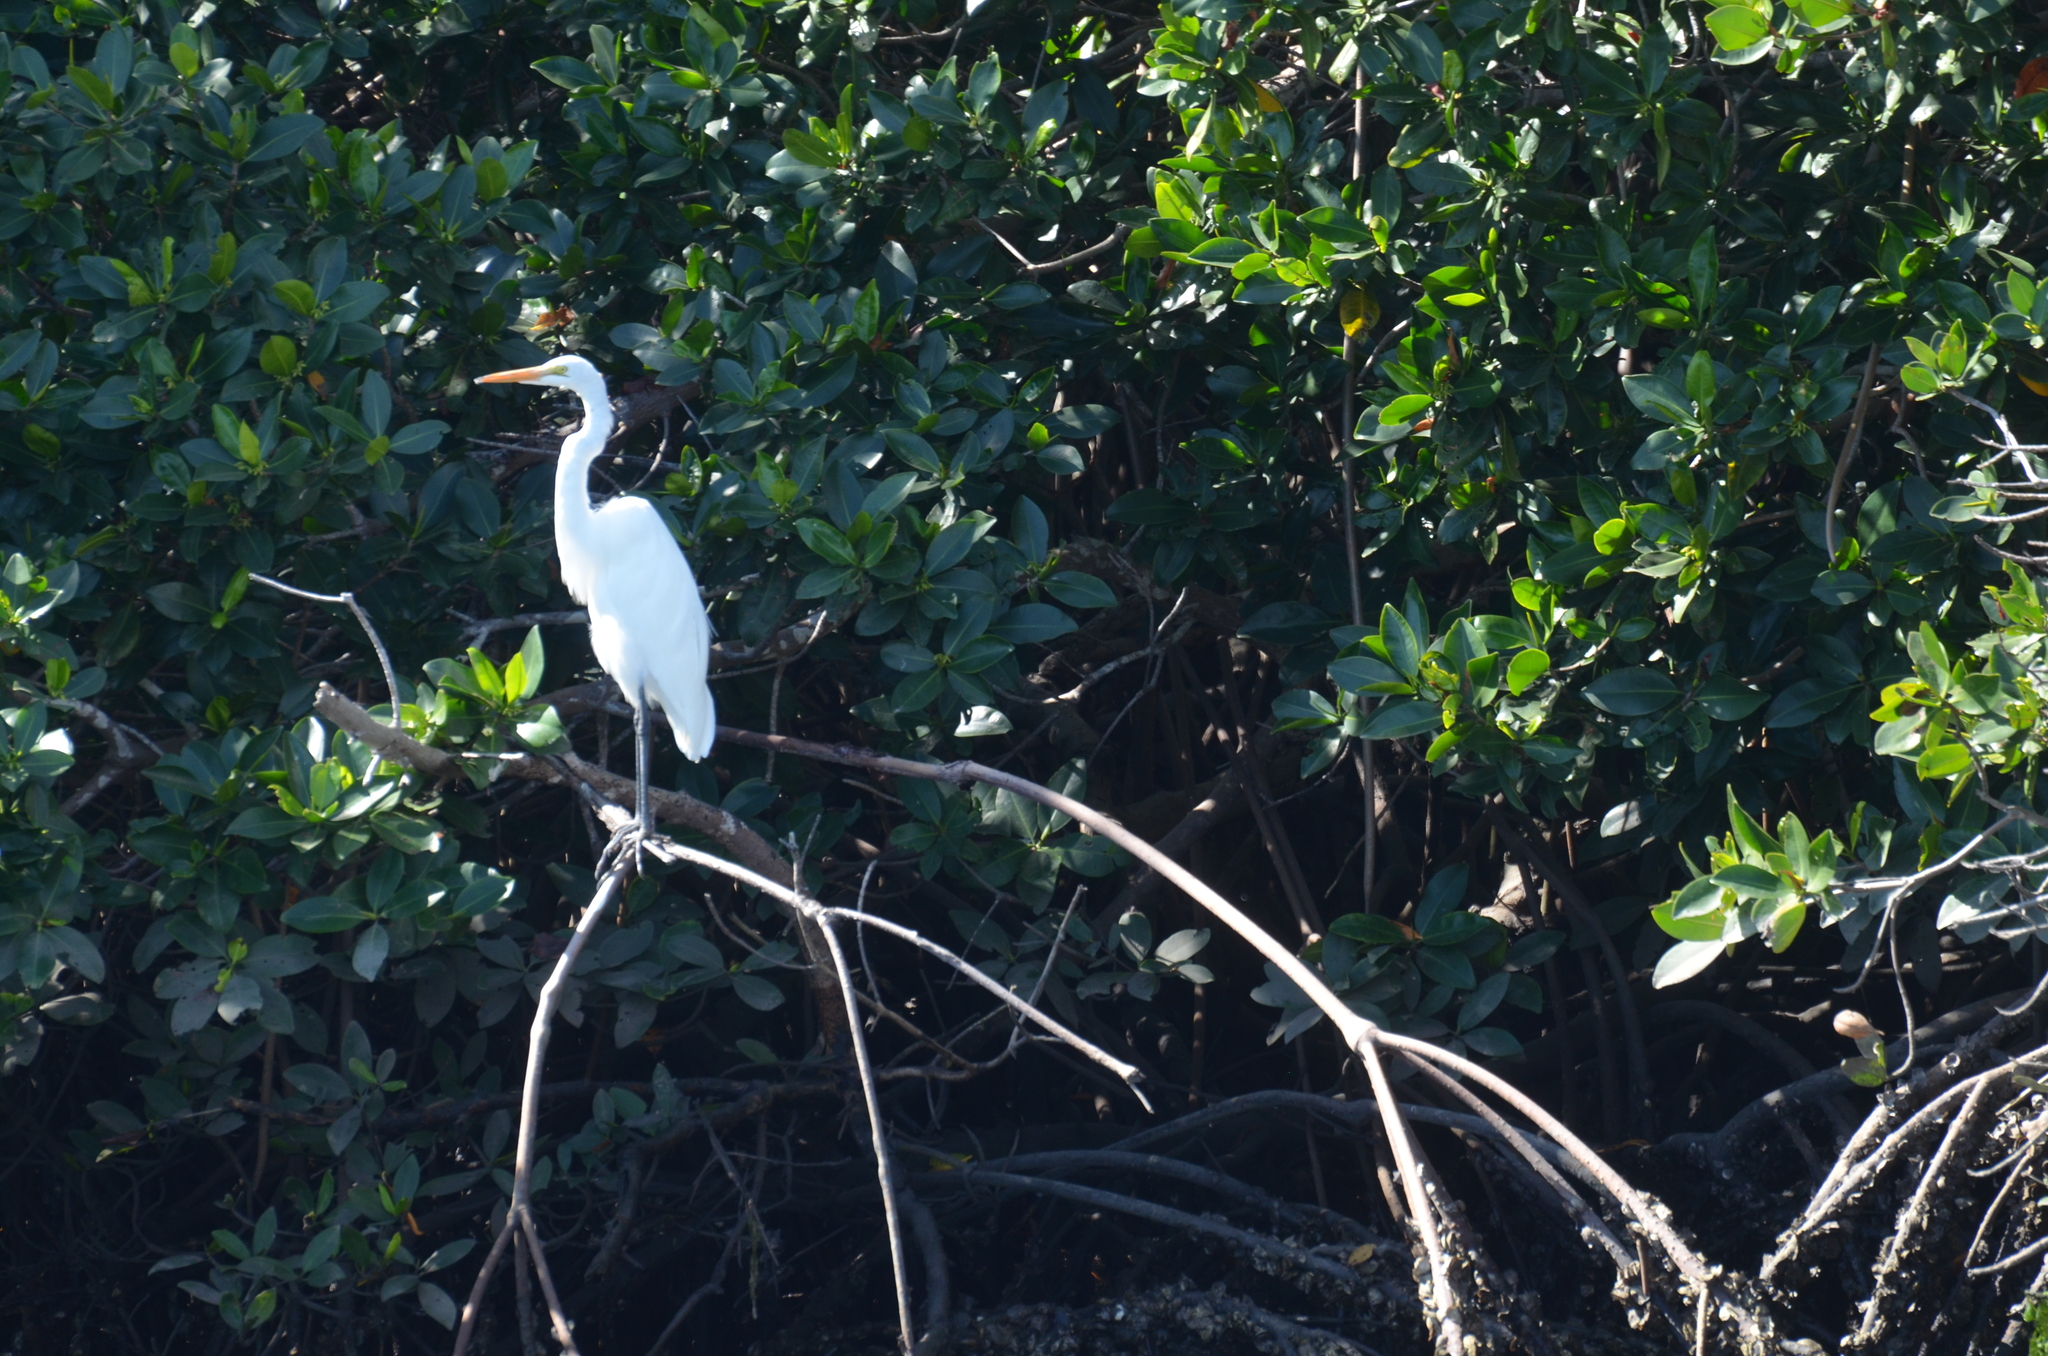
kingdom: Animalia
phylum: Chordata
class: Aves
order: Pelecaniformes
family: Ardeidae
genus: Ardea
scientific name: Ardea alba
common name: Great egret
